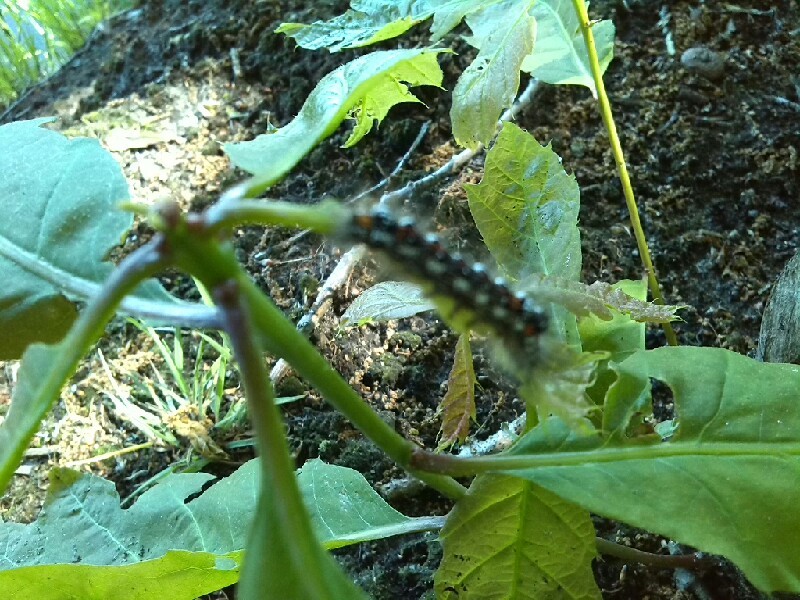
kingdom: Animalia
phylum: Arthropoda
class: Insecta
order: Lepidoptera
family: Noctuidae
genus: Acronicta
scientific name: Acronicta rumicis
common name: Knot grass
